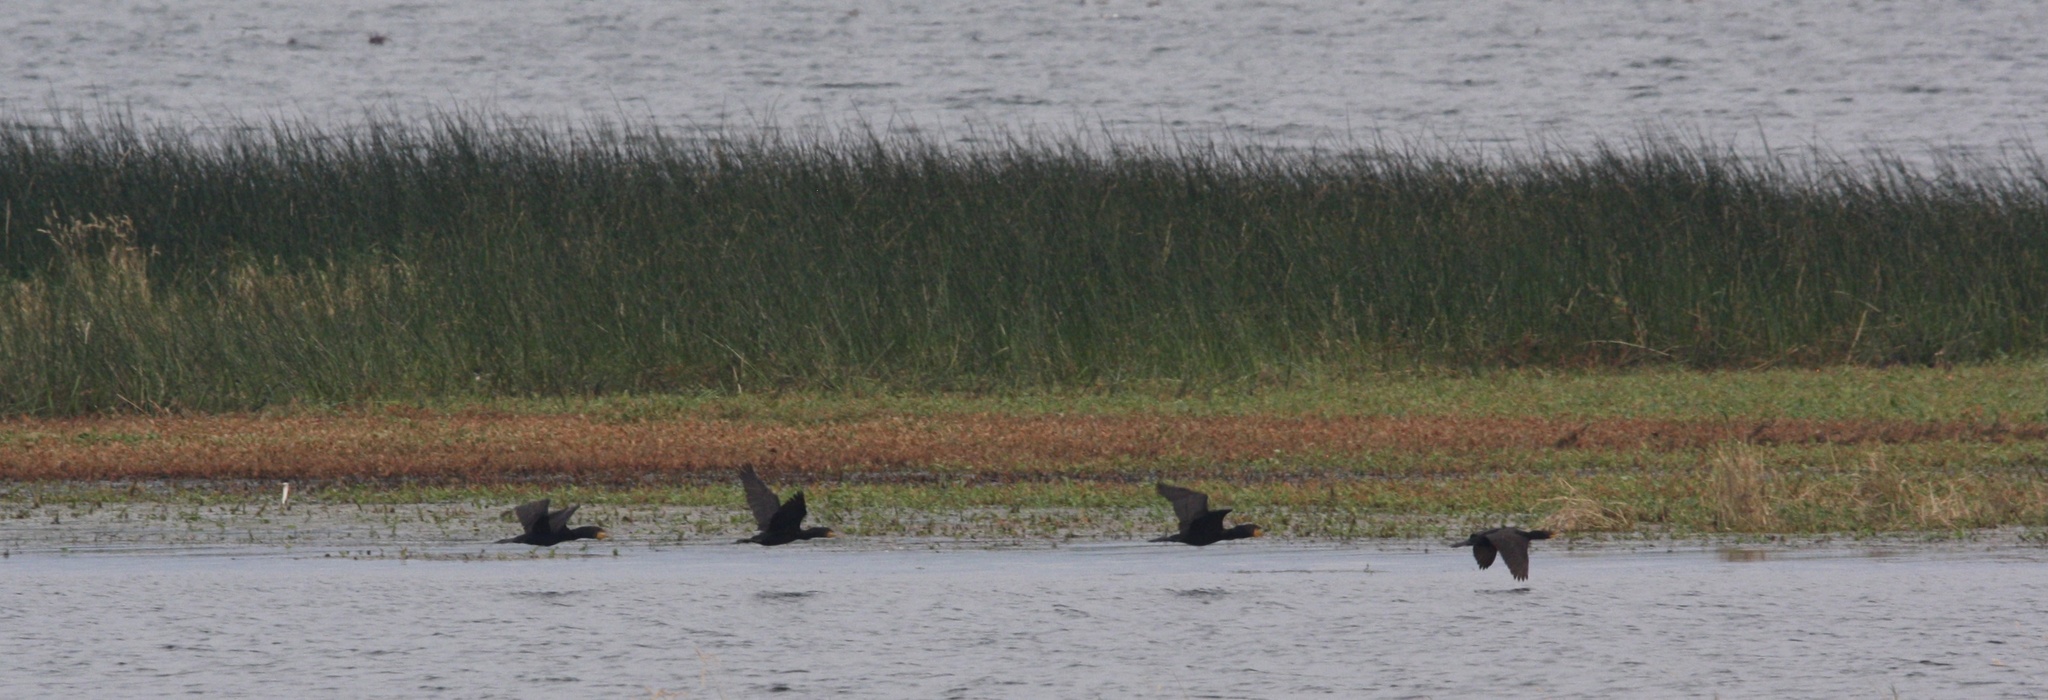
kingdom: Animalia
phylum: Chordata
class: Aves
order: Suliformes
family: Phalacrocoracidae
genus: Phalacrocorax
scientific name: Phalacrocorax auritus
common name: Double-crested cormorant
